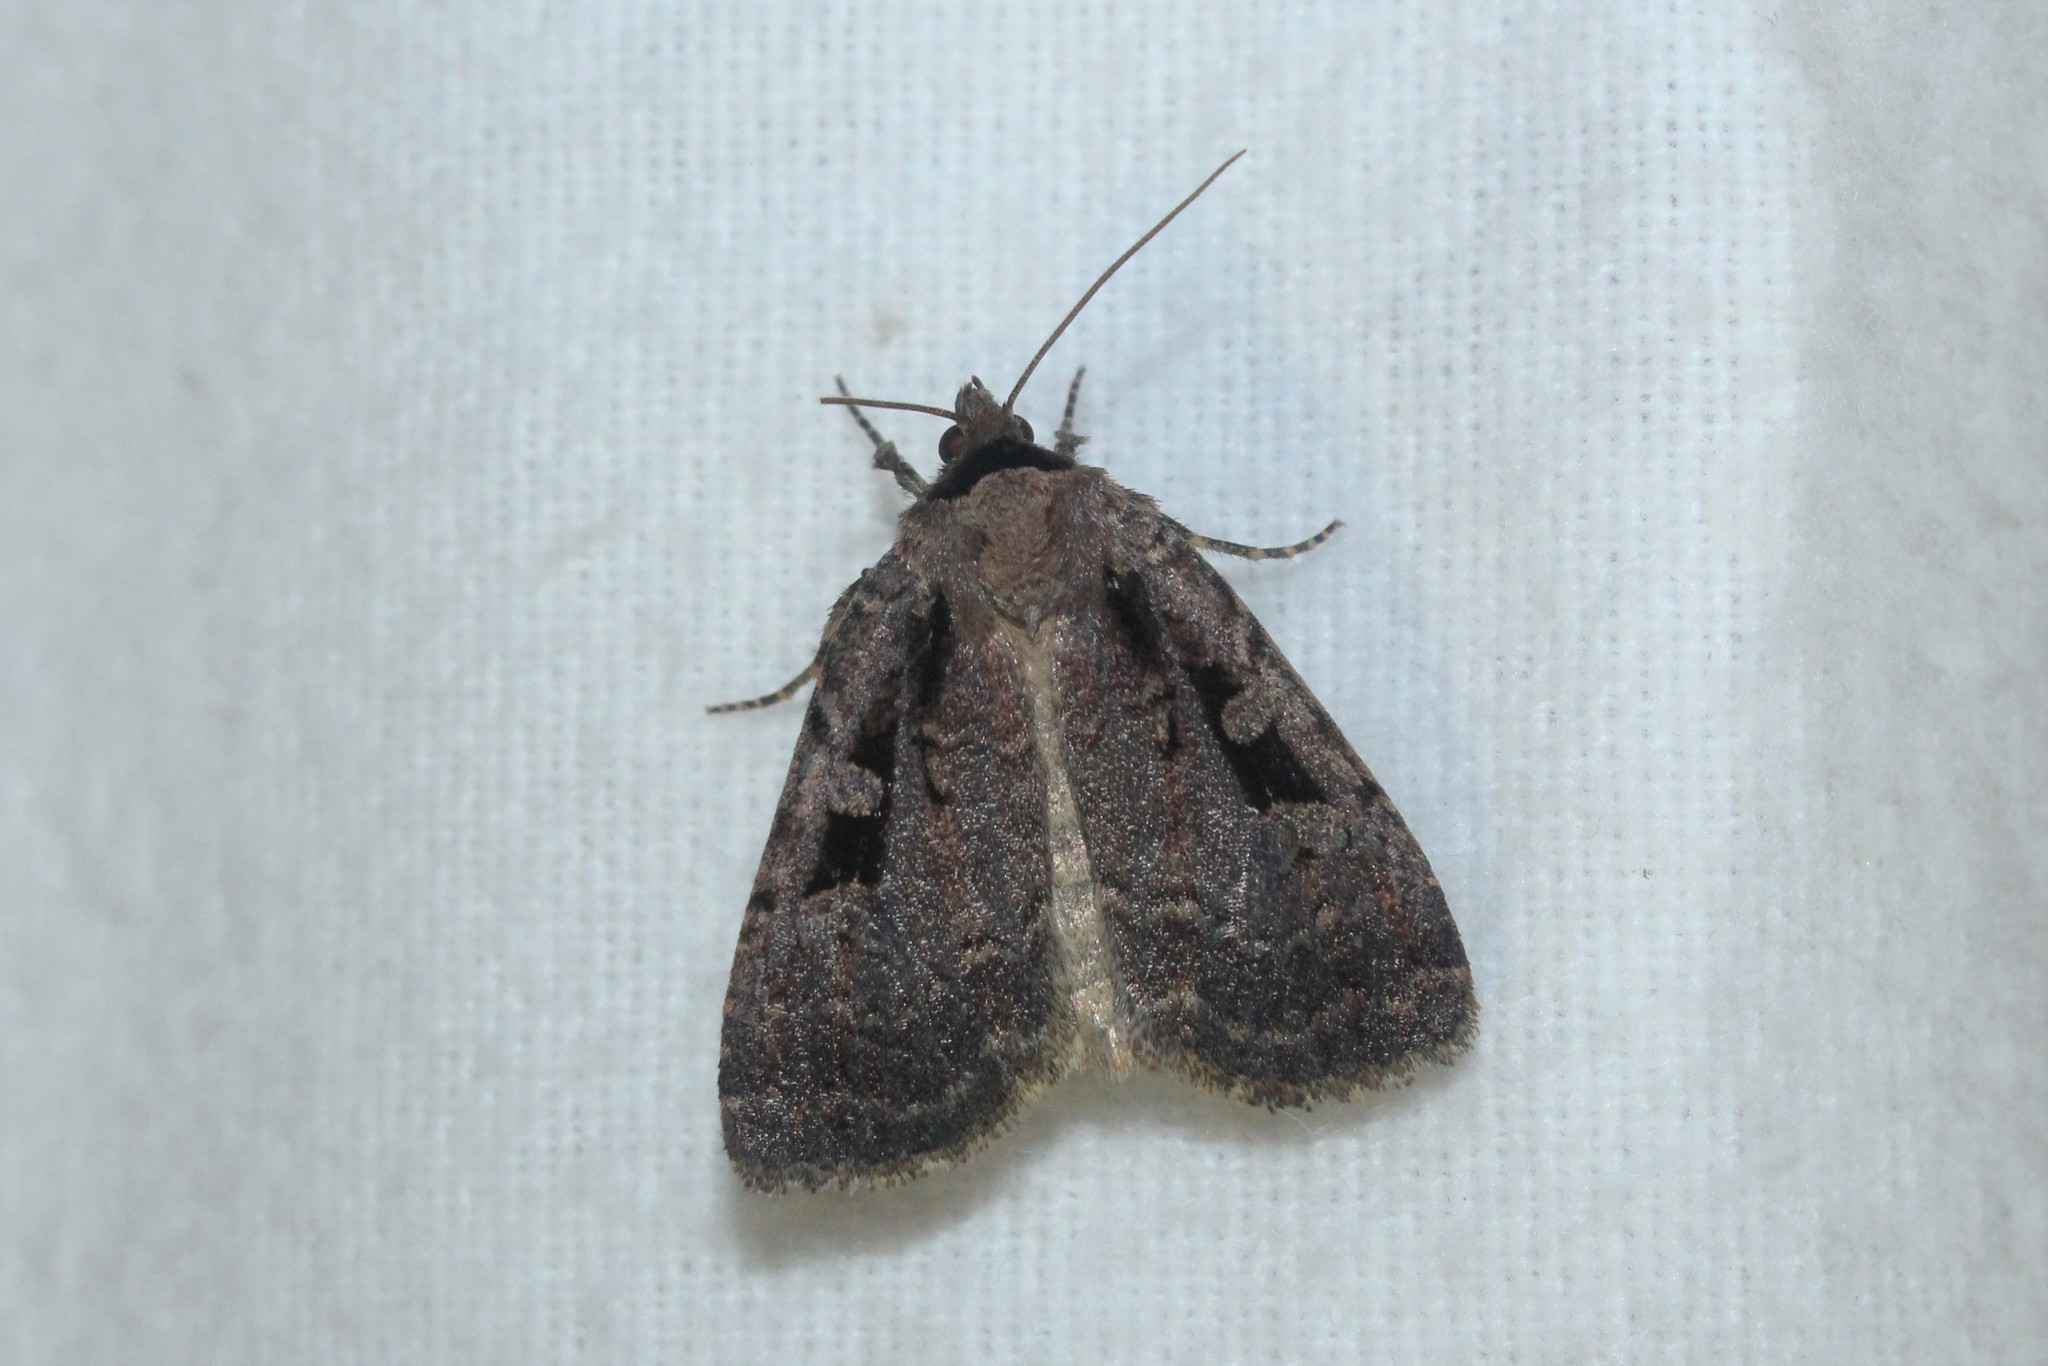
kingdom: Animalia
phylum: Arthropoda
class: Insecta
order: Lepidoptera
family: Noctuidae
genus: Eueretagrotis
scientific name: Eueretagrotis perattentus
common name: Two-spot dart moth
